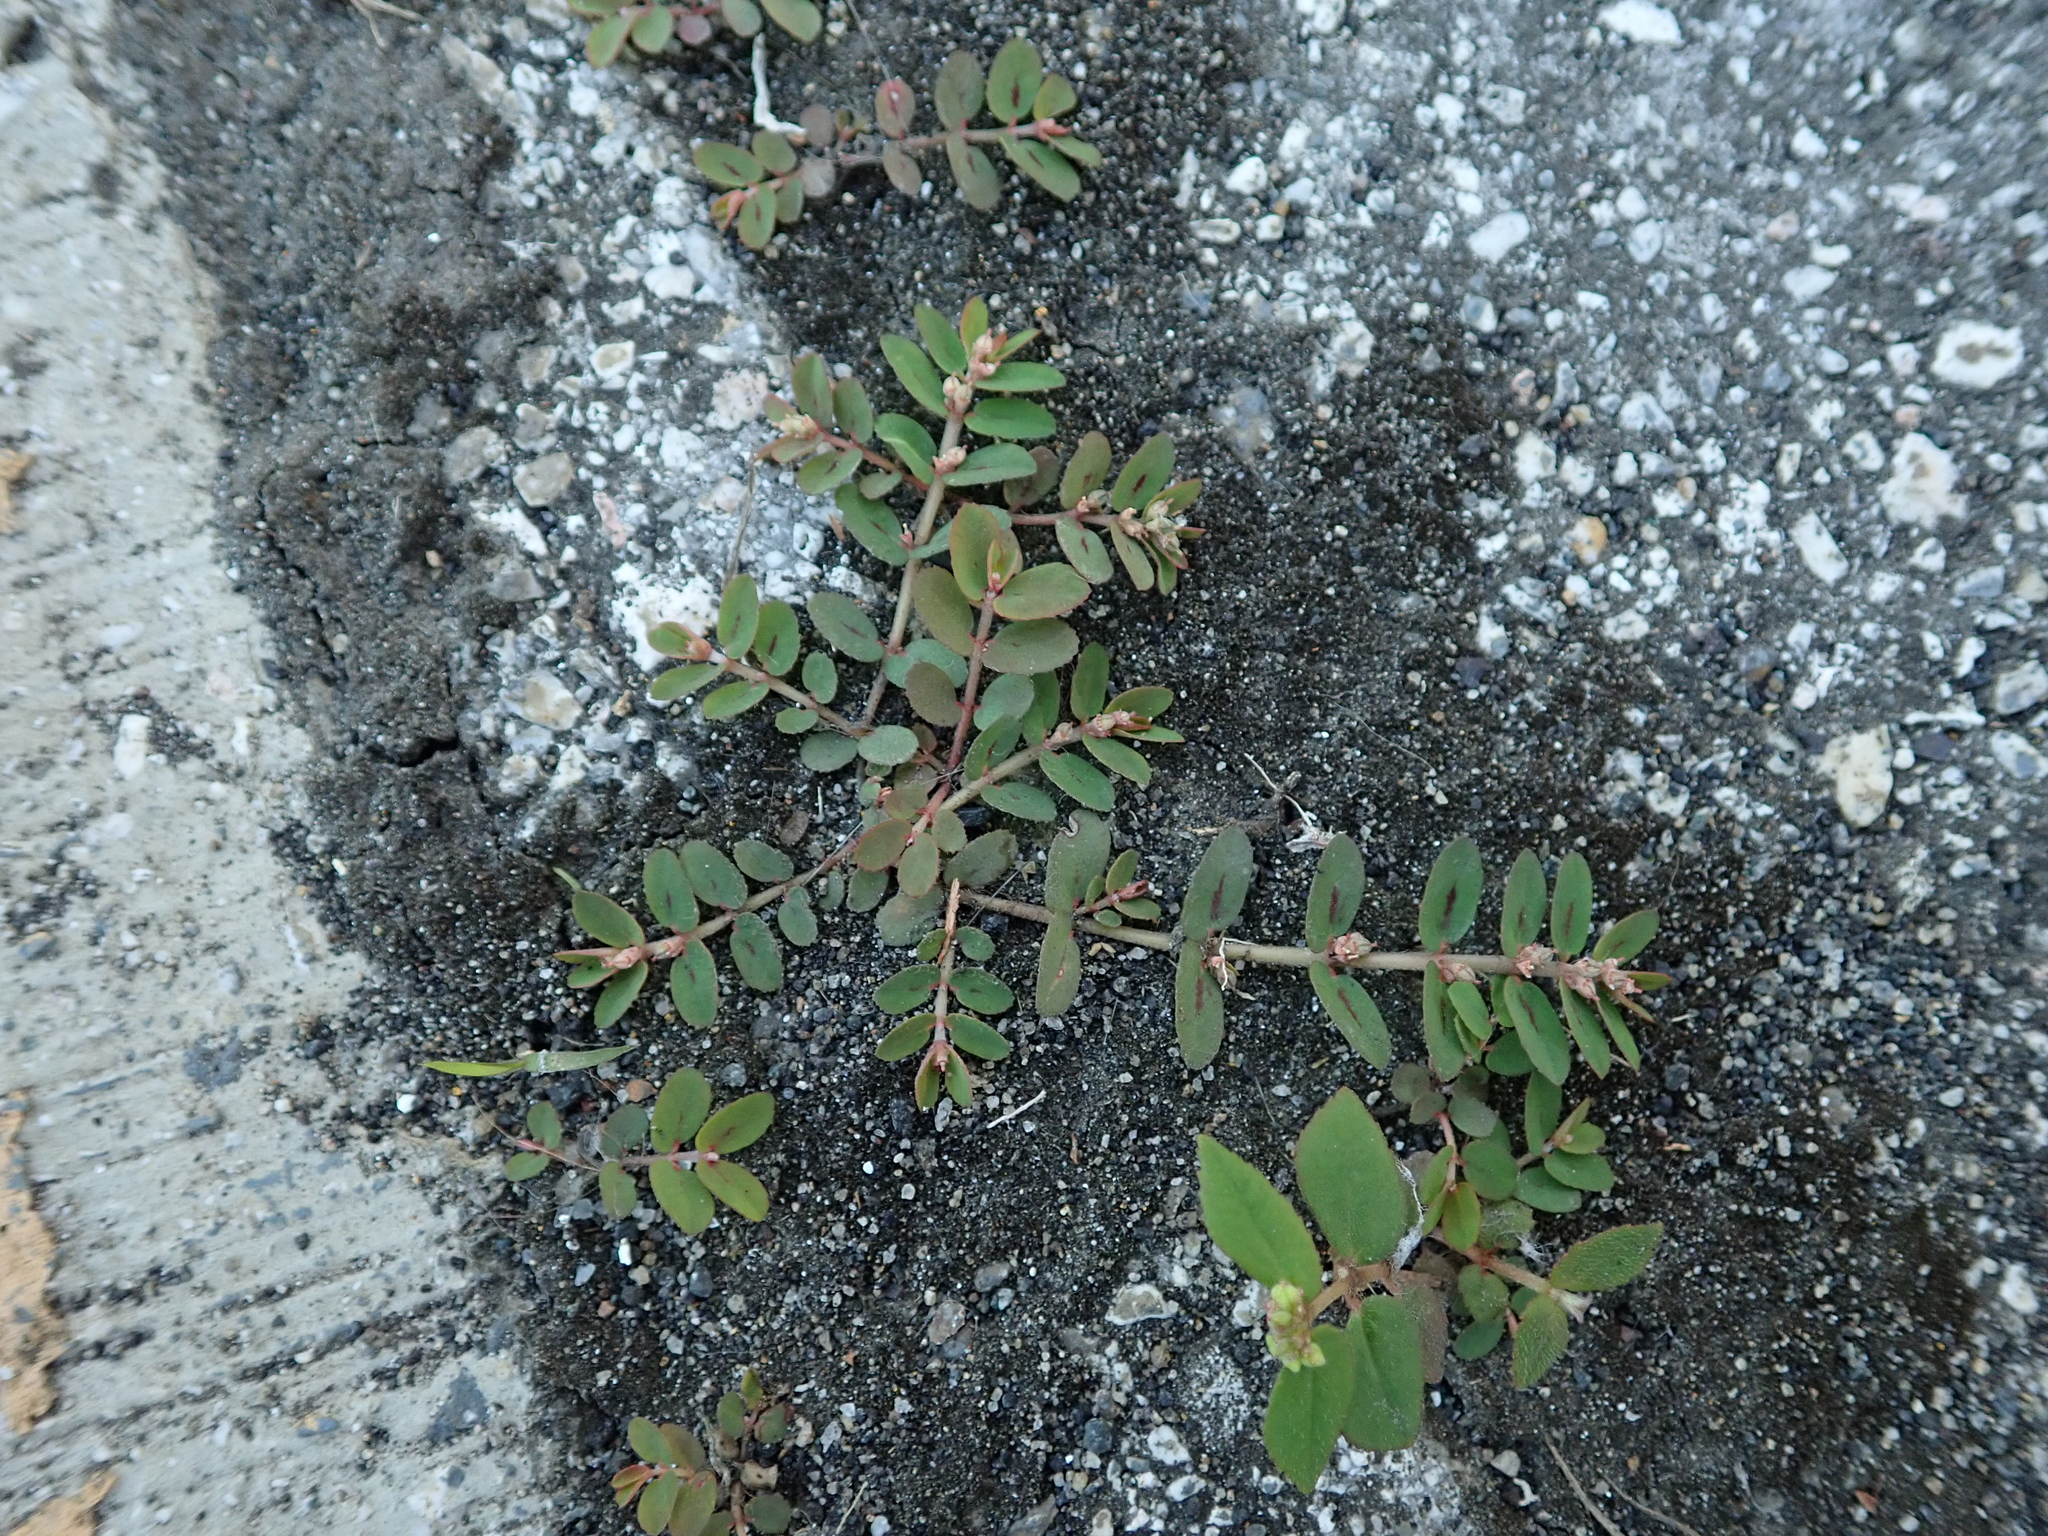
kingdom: Plantae
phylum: Tracheophyta
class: Magnoliopsida
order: Malpighiales
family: Euphorbiaceae
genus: Euphorbia
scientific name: Euphorbia thymifolia
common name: Gulf sandmat
